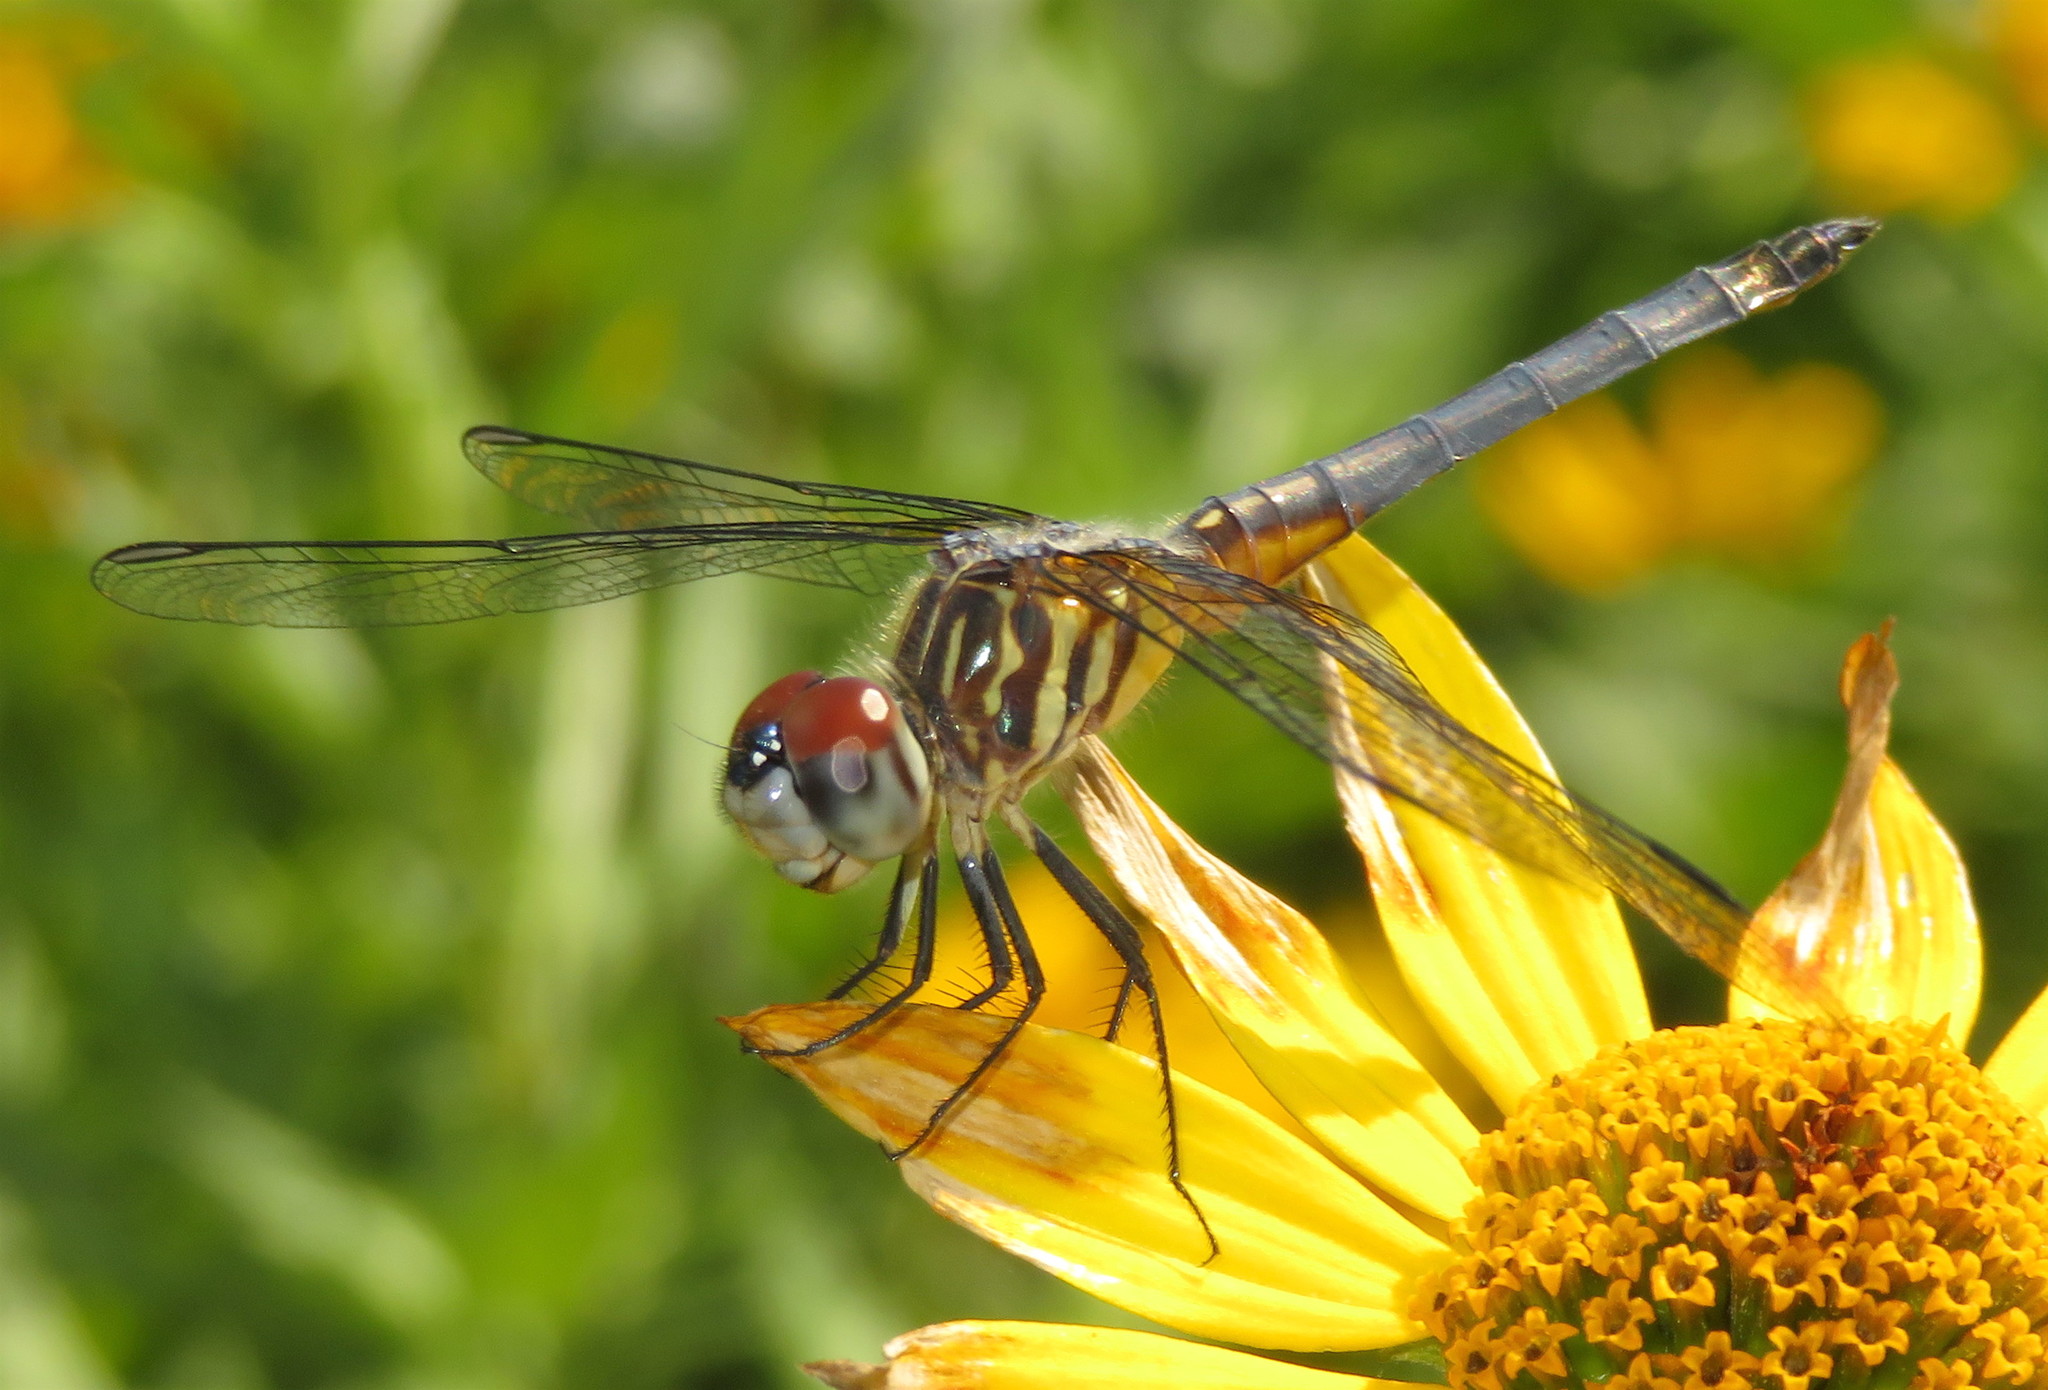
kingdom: Animalia
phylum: Arthropoda
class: Insecta
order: Odonata
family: Libellulidae
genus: Pachydiplax
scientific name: Pachydiplax longipennis
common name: Blue dasher
